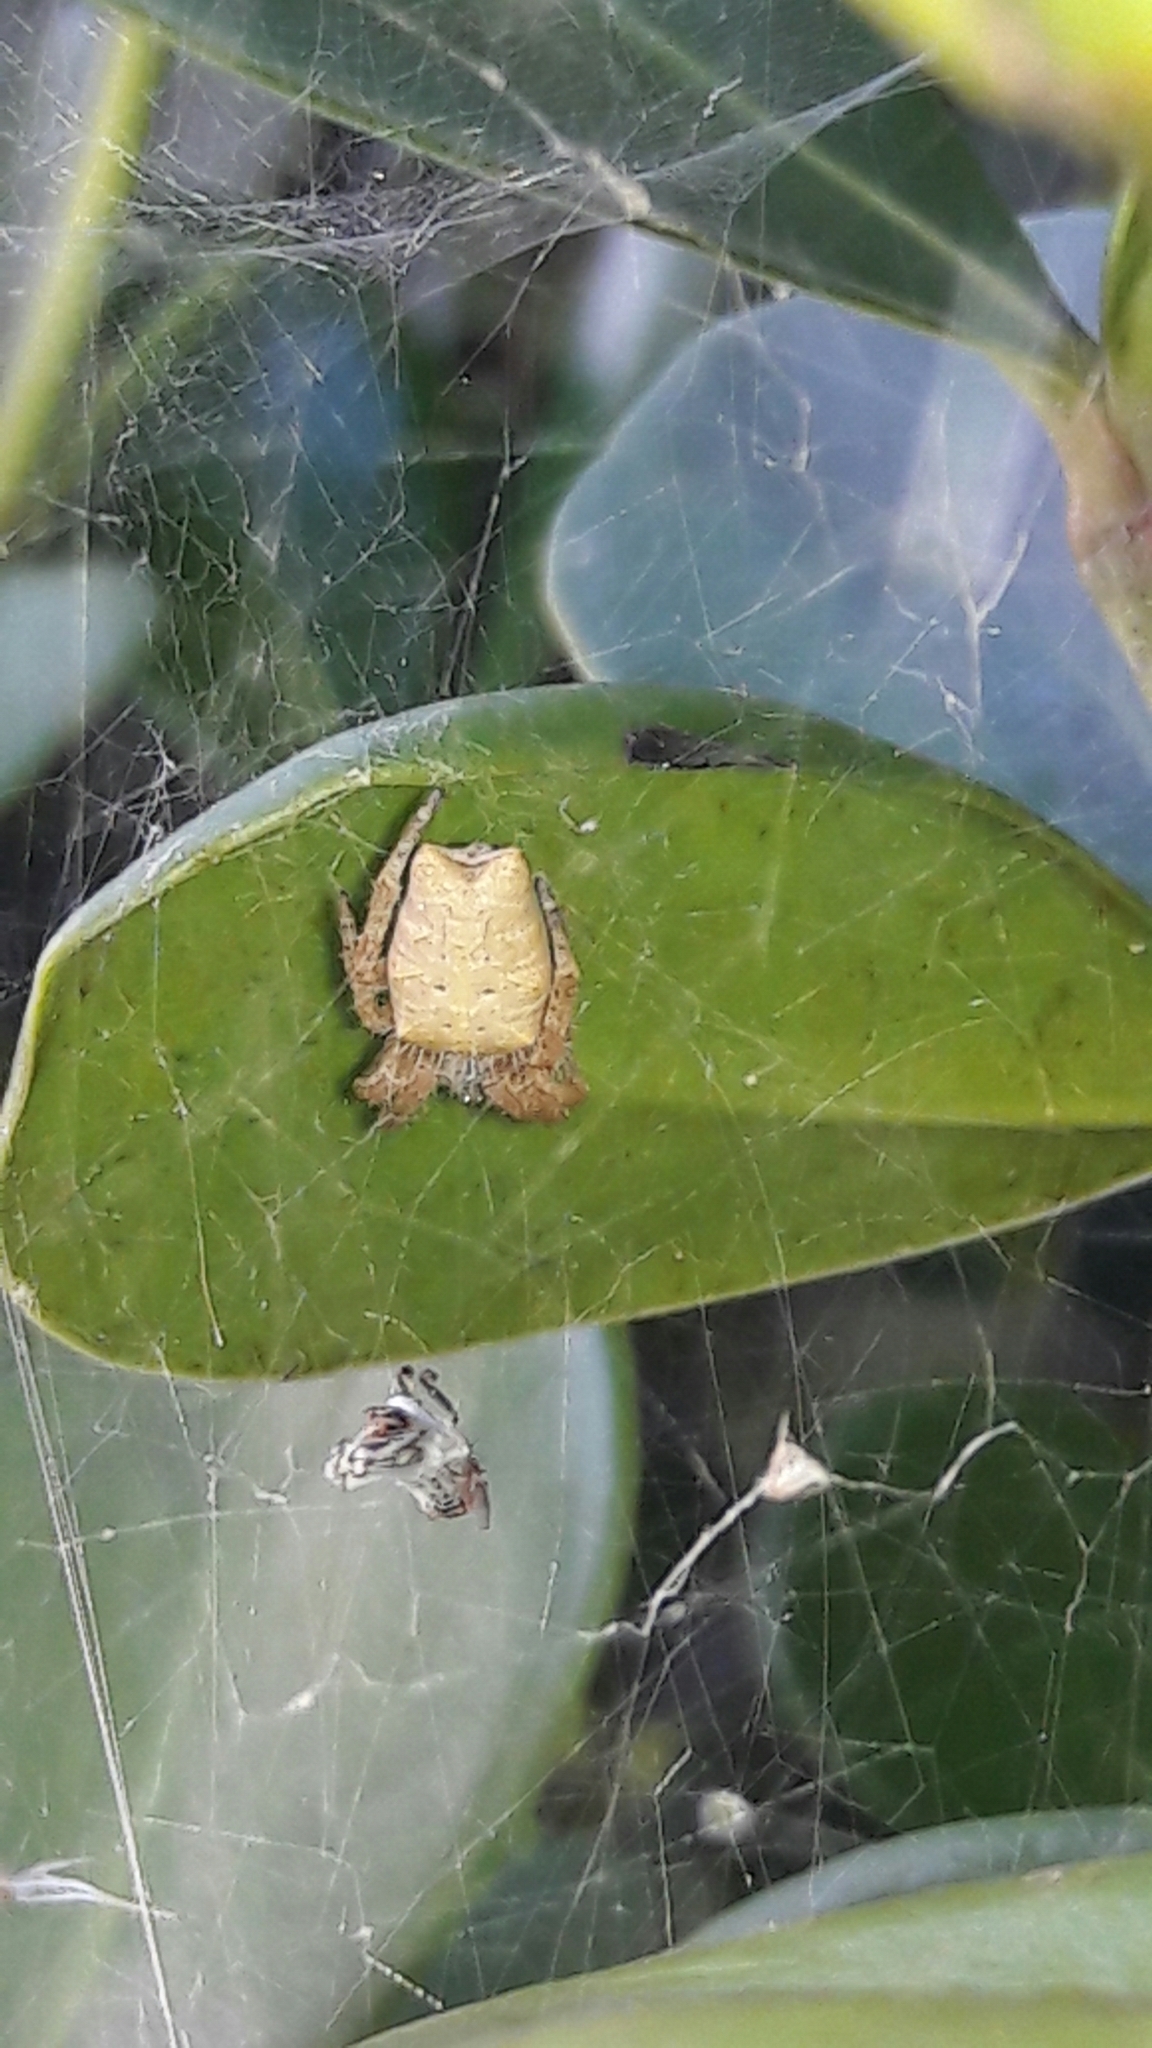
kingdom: Animalia
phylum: Arthropoda
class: Arachnida
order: Araneae
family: Araneidae
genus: Cyrtophora
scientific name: Cyrtophora citricola
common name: Orb weavers
